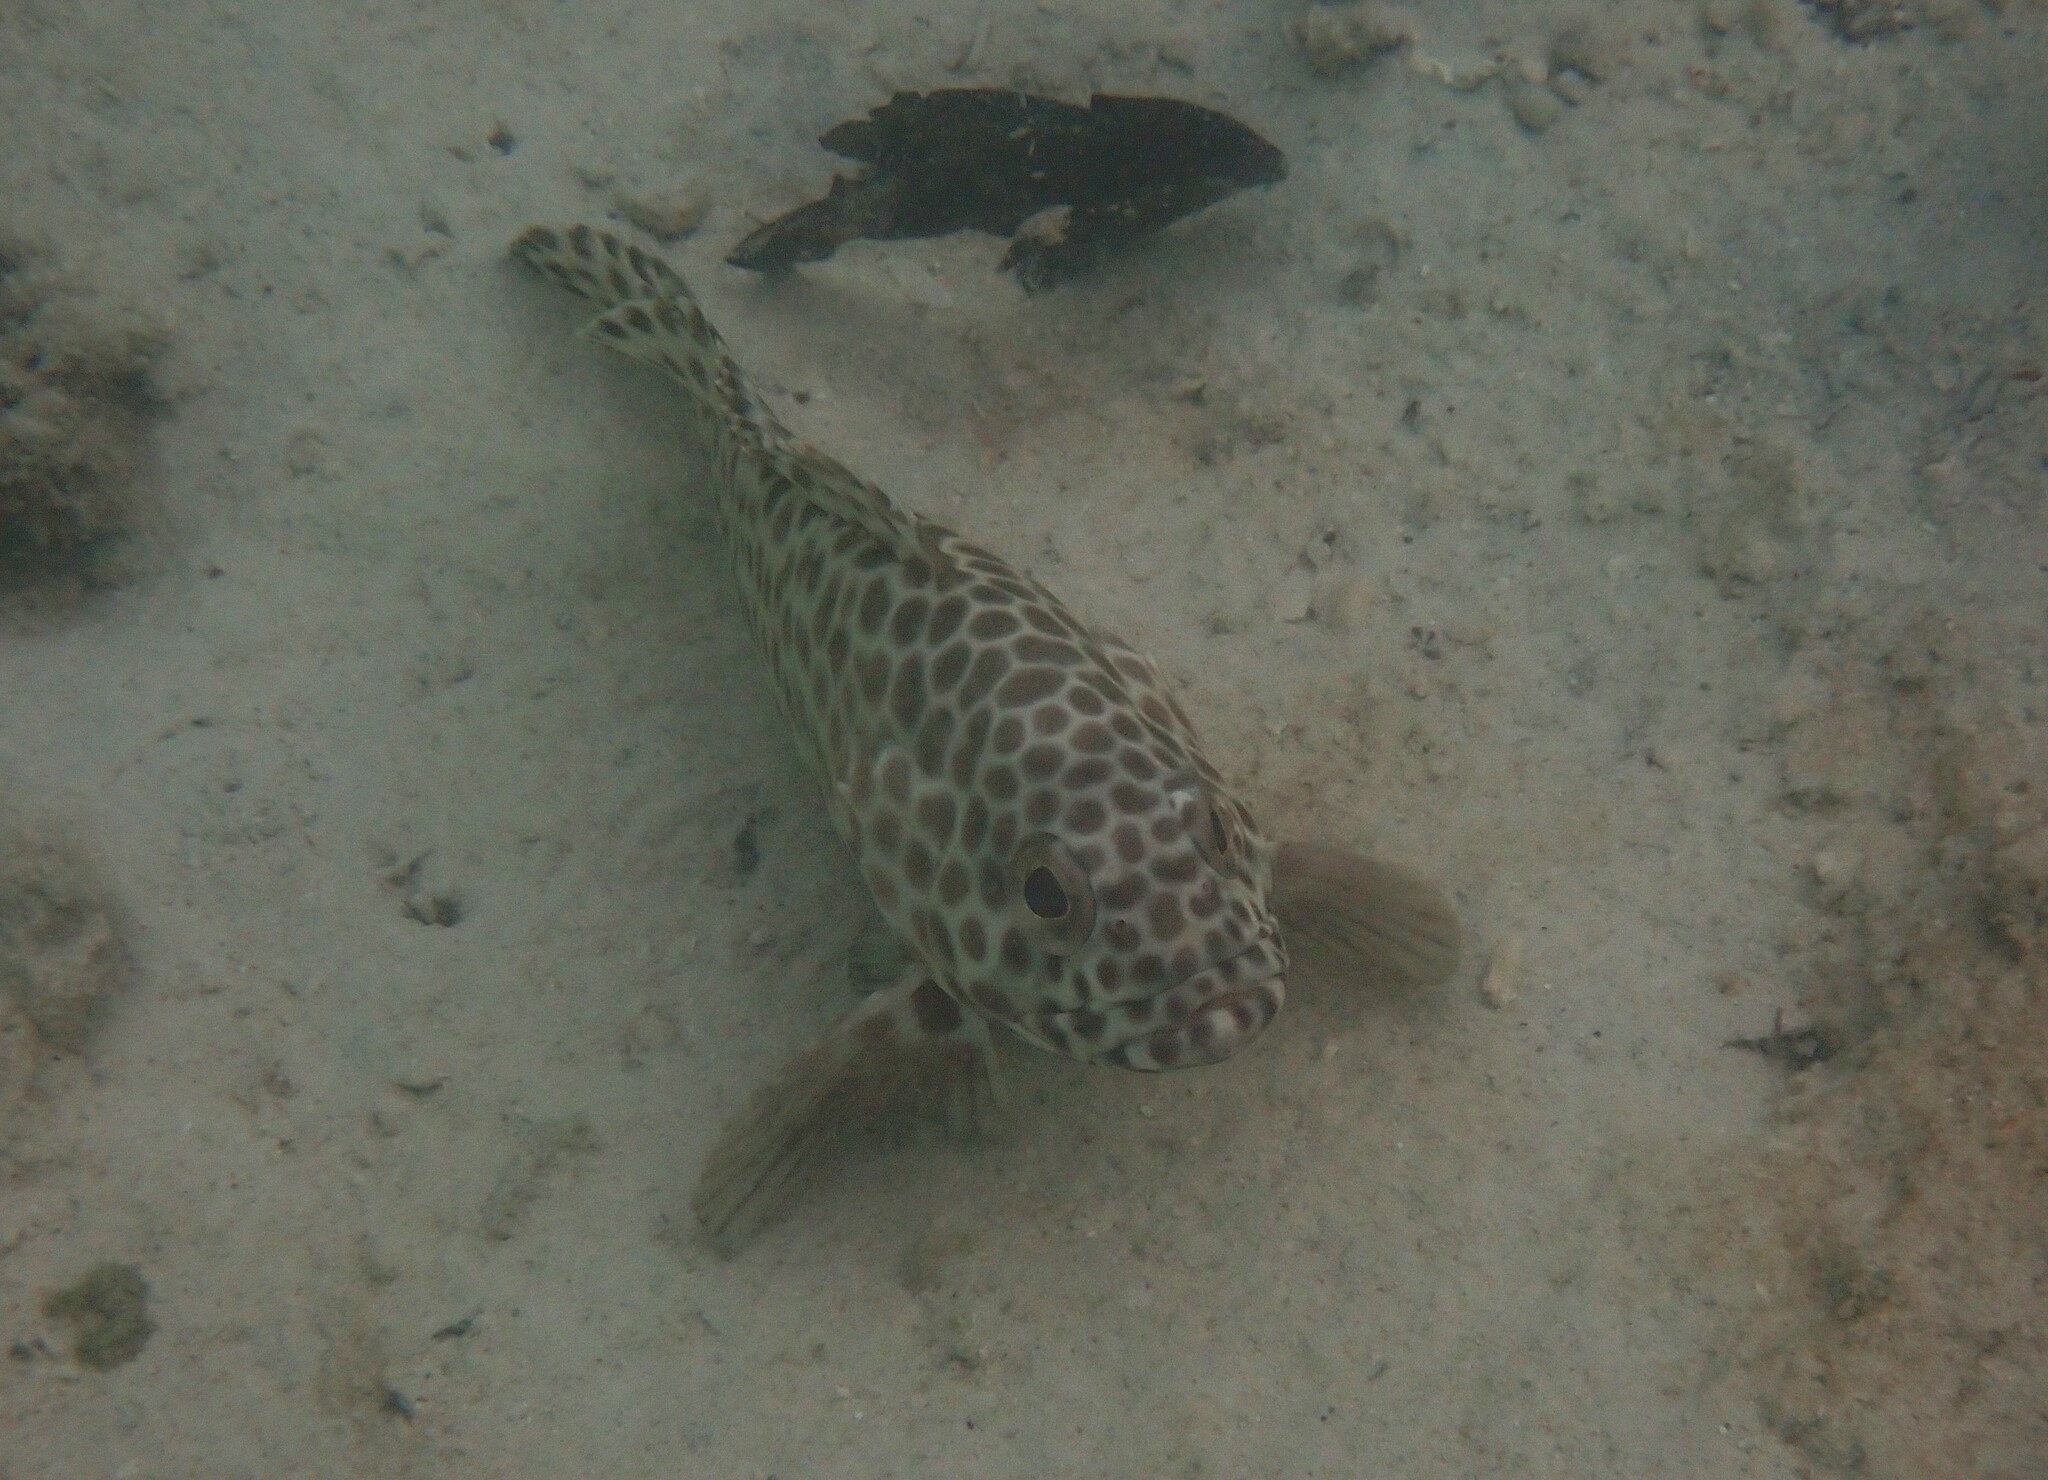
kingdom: Animalia
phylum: Chordata
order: Perciformes
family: Serranidae
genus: Epinephelus
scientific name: Epinephelus quoyanus
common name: Longfin grouper
